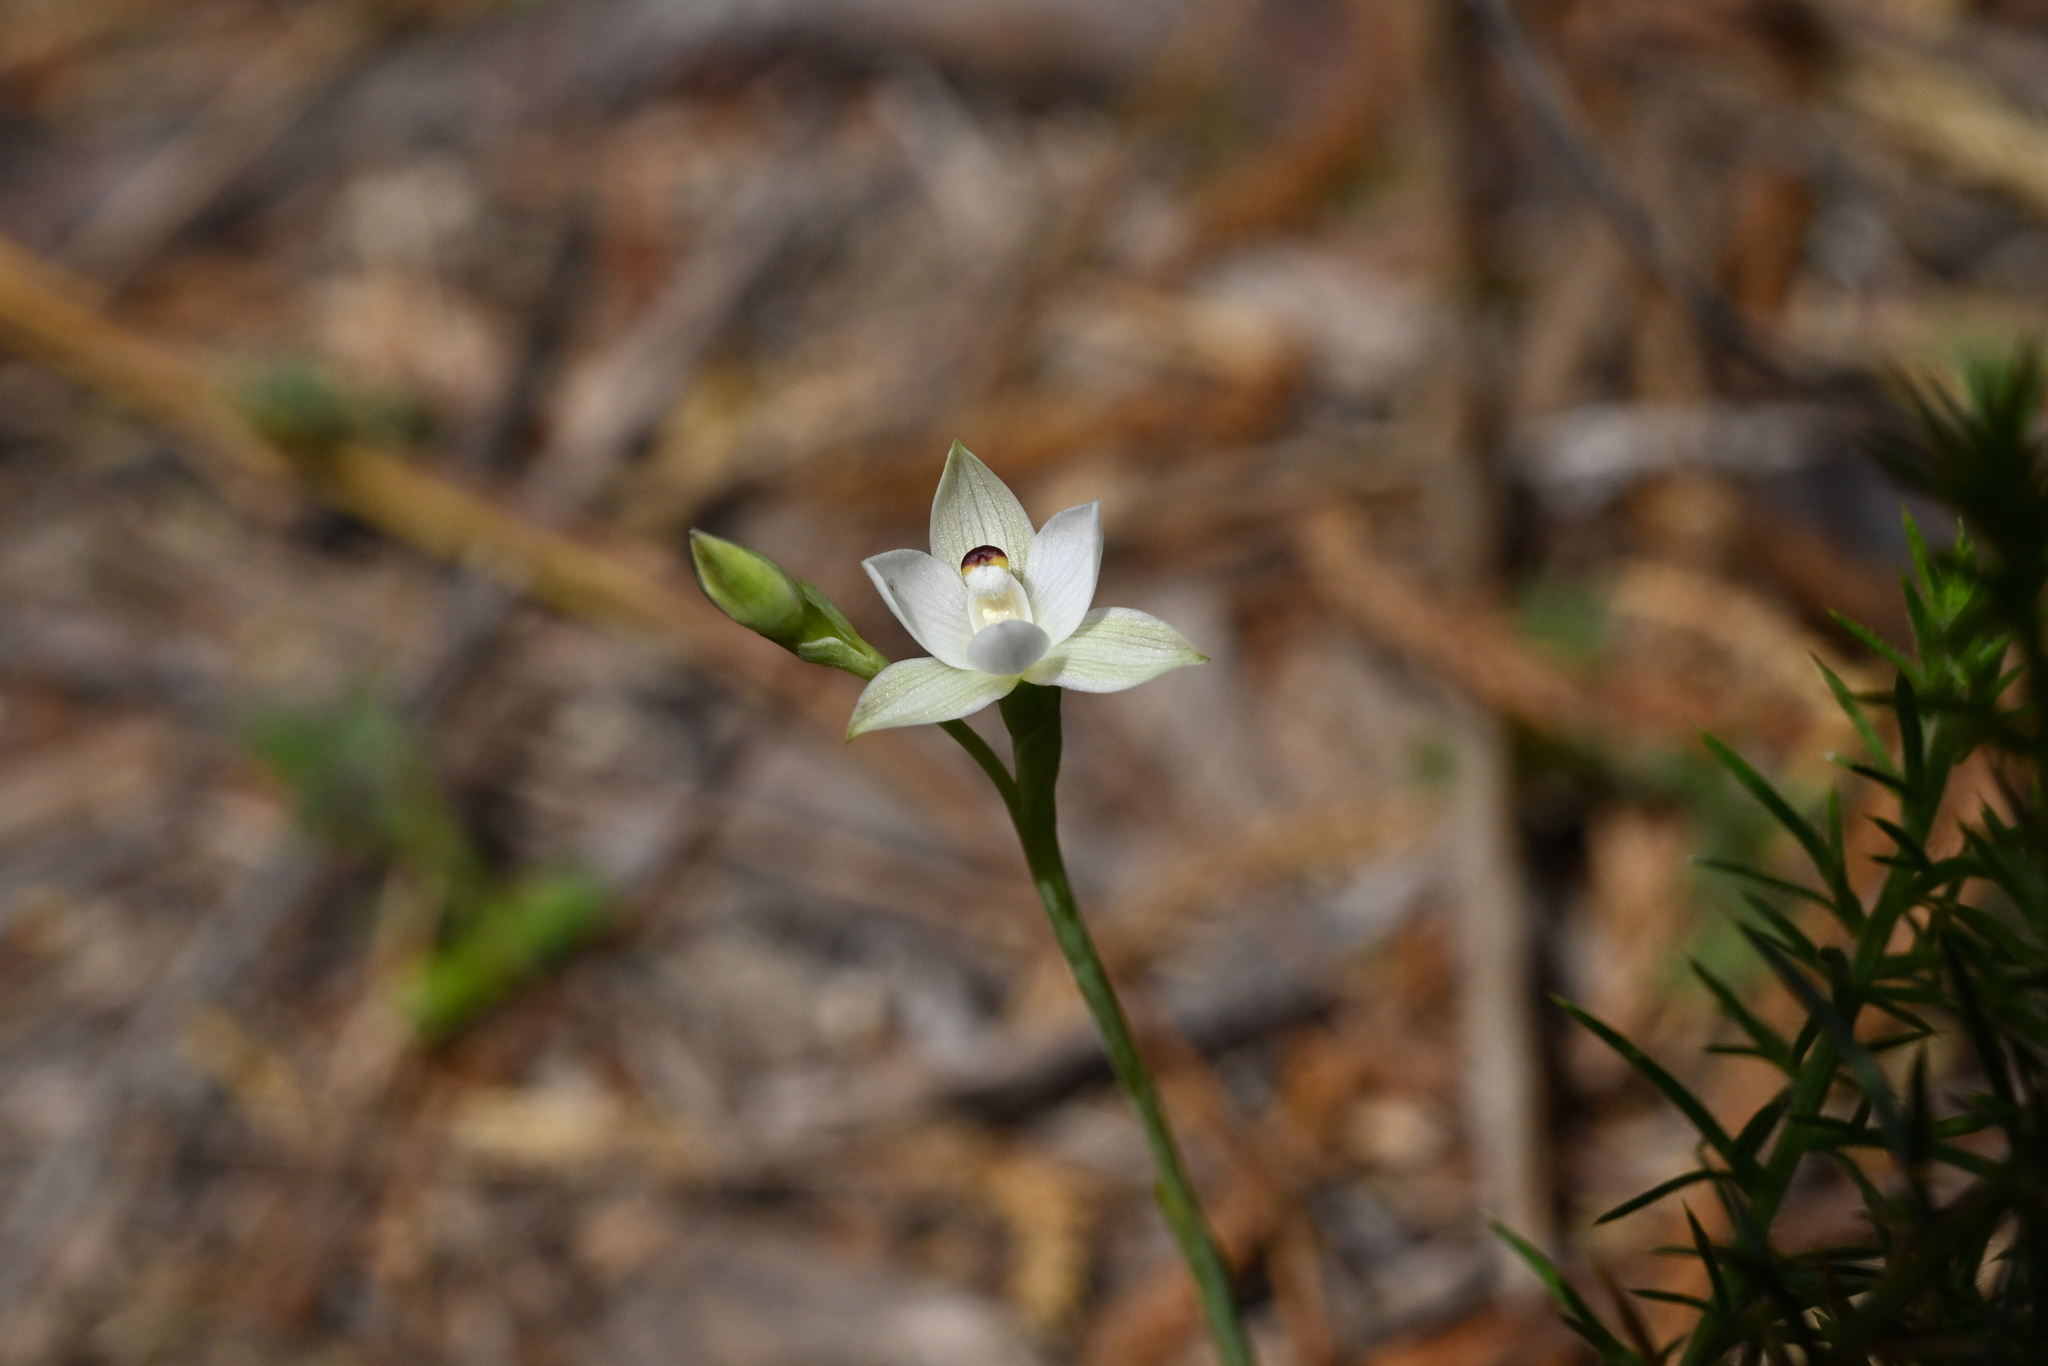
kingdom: Plantae
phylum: Tracheophyta
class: Liliopsida
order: Asparagales
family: Orchidaceae
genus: Thelymitra
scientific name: Thelymitra longifolia
